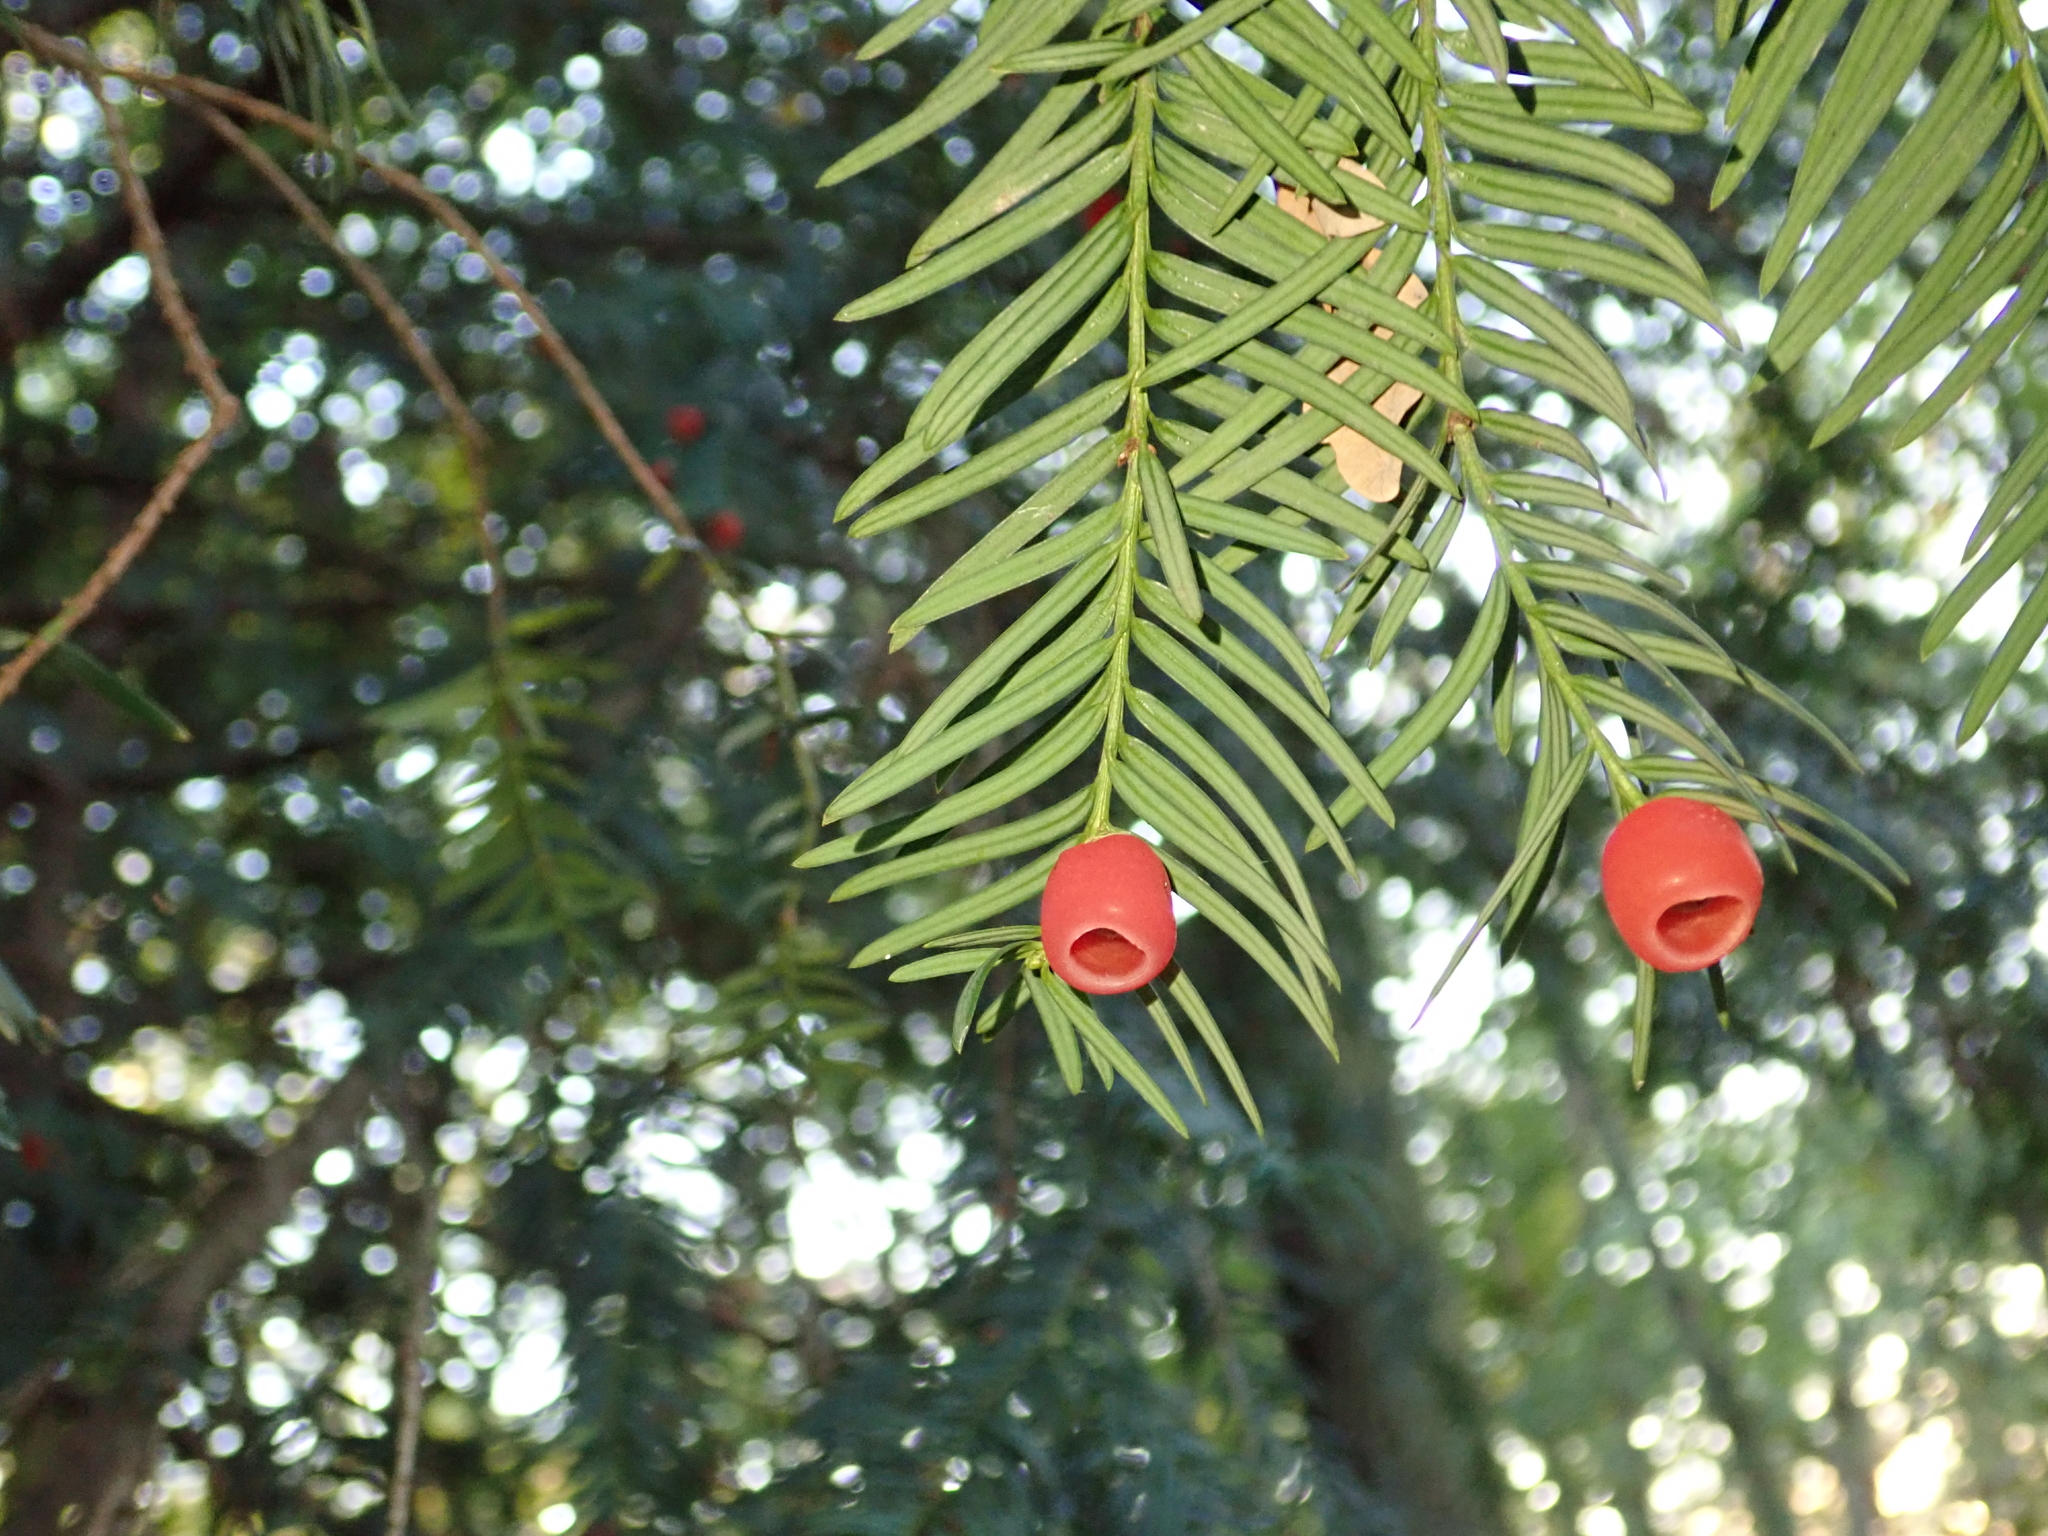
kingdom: Plantae
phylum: Tracheophyta
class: Pinopsida
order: Pinales
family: Taxaceae
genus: Taxus
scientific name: Taxus baccata
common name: Yew
